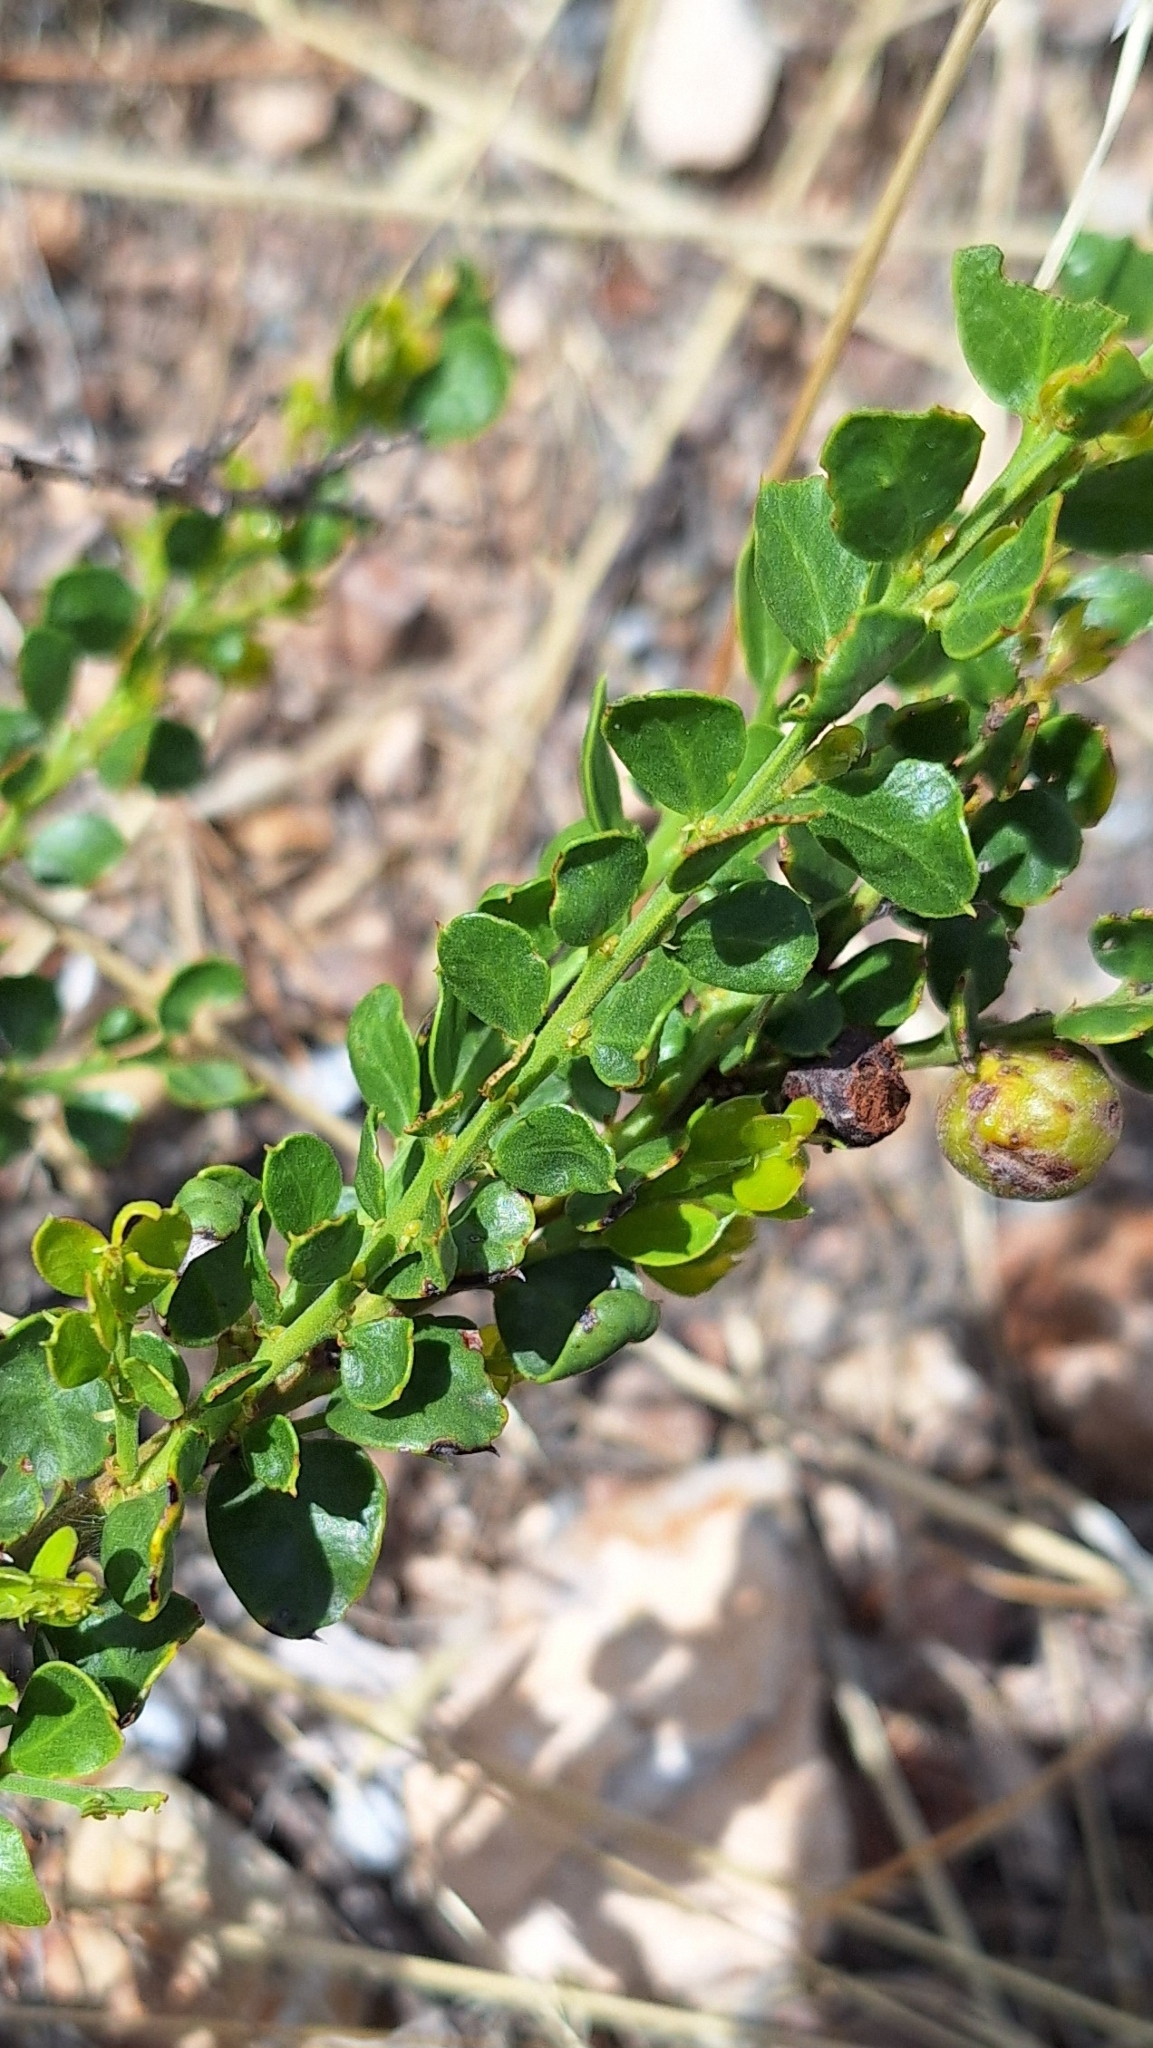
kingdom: Plantae
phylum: Tracheophyta
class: Magnoliopsida
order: Fabales
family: Fabaceae
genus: Acacia
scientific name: Acacia acinacea
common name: Gold-dust acacia
